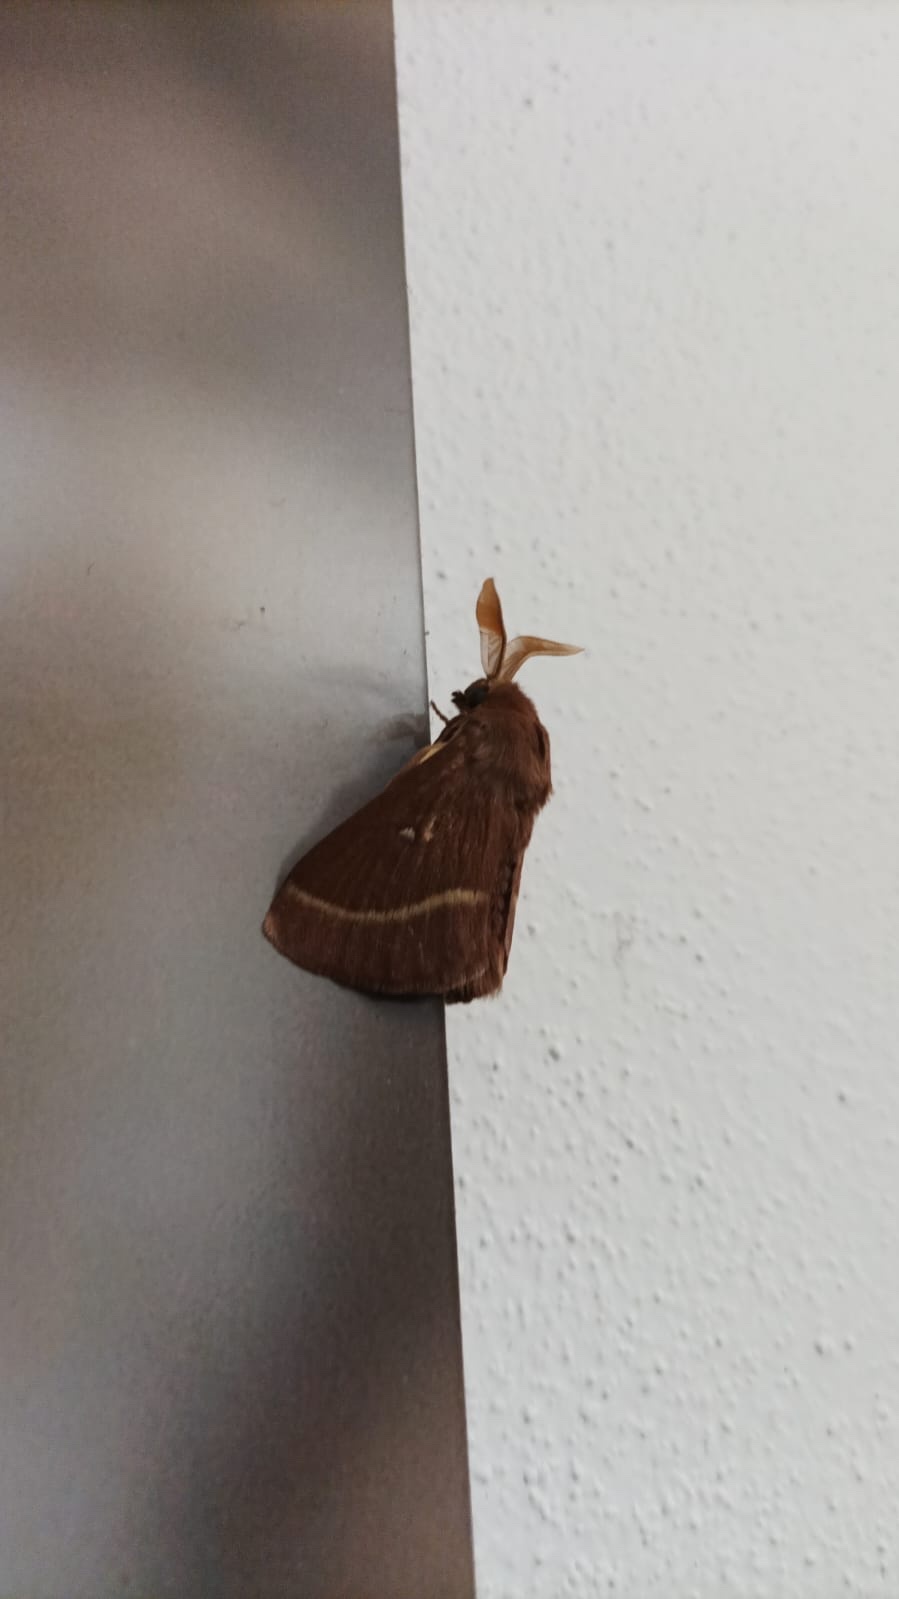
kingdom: Animalia
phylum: Arthropoda
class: Insecta
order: Lepidoptera
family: Lasiocampidae
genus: Lasiocampa
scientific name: Lasiocampa trifolii
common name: Grass eggar
